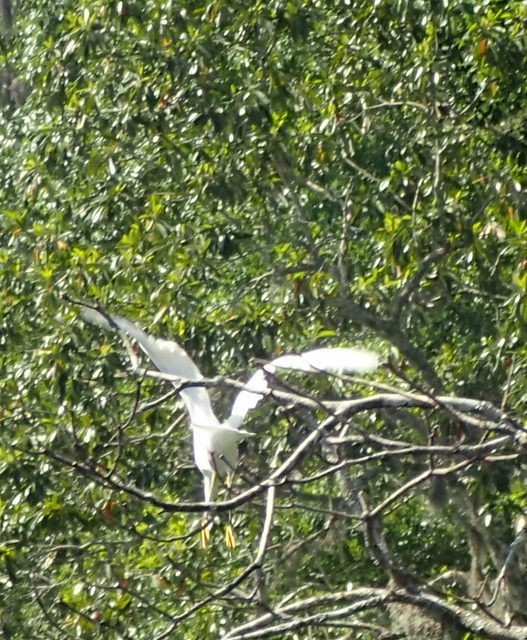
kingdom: Animalia
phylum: Chordata
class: Aves
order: Pelecaniformes
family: Ardeidae
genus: Egretta
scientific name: Egretta thula
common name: Snowy egret
